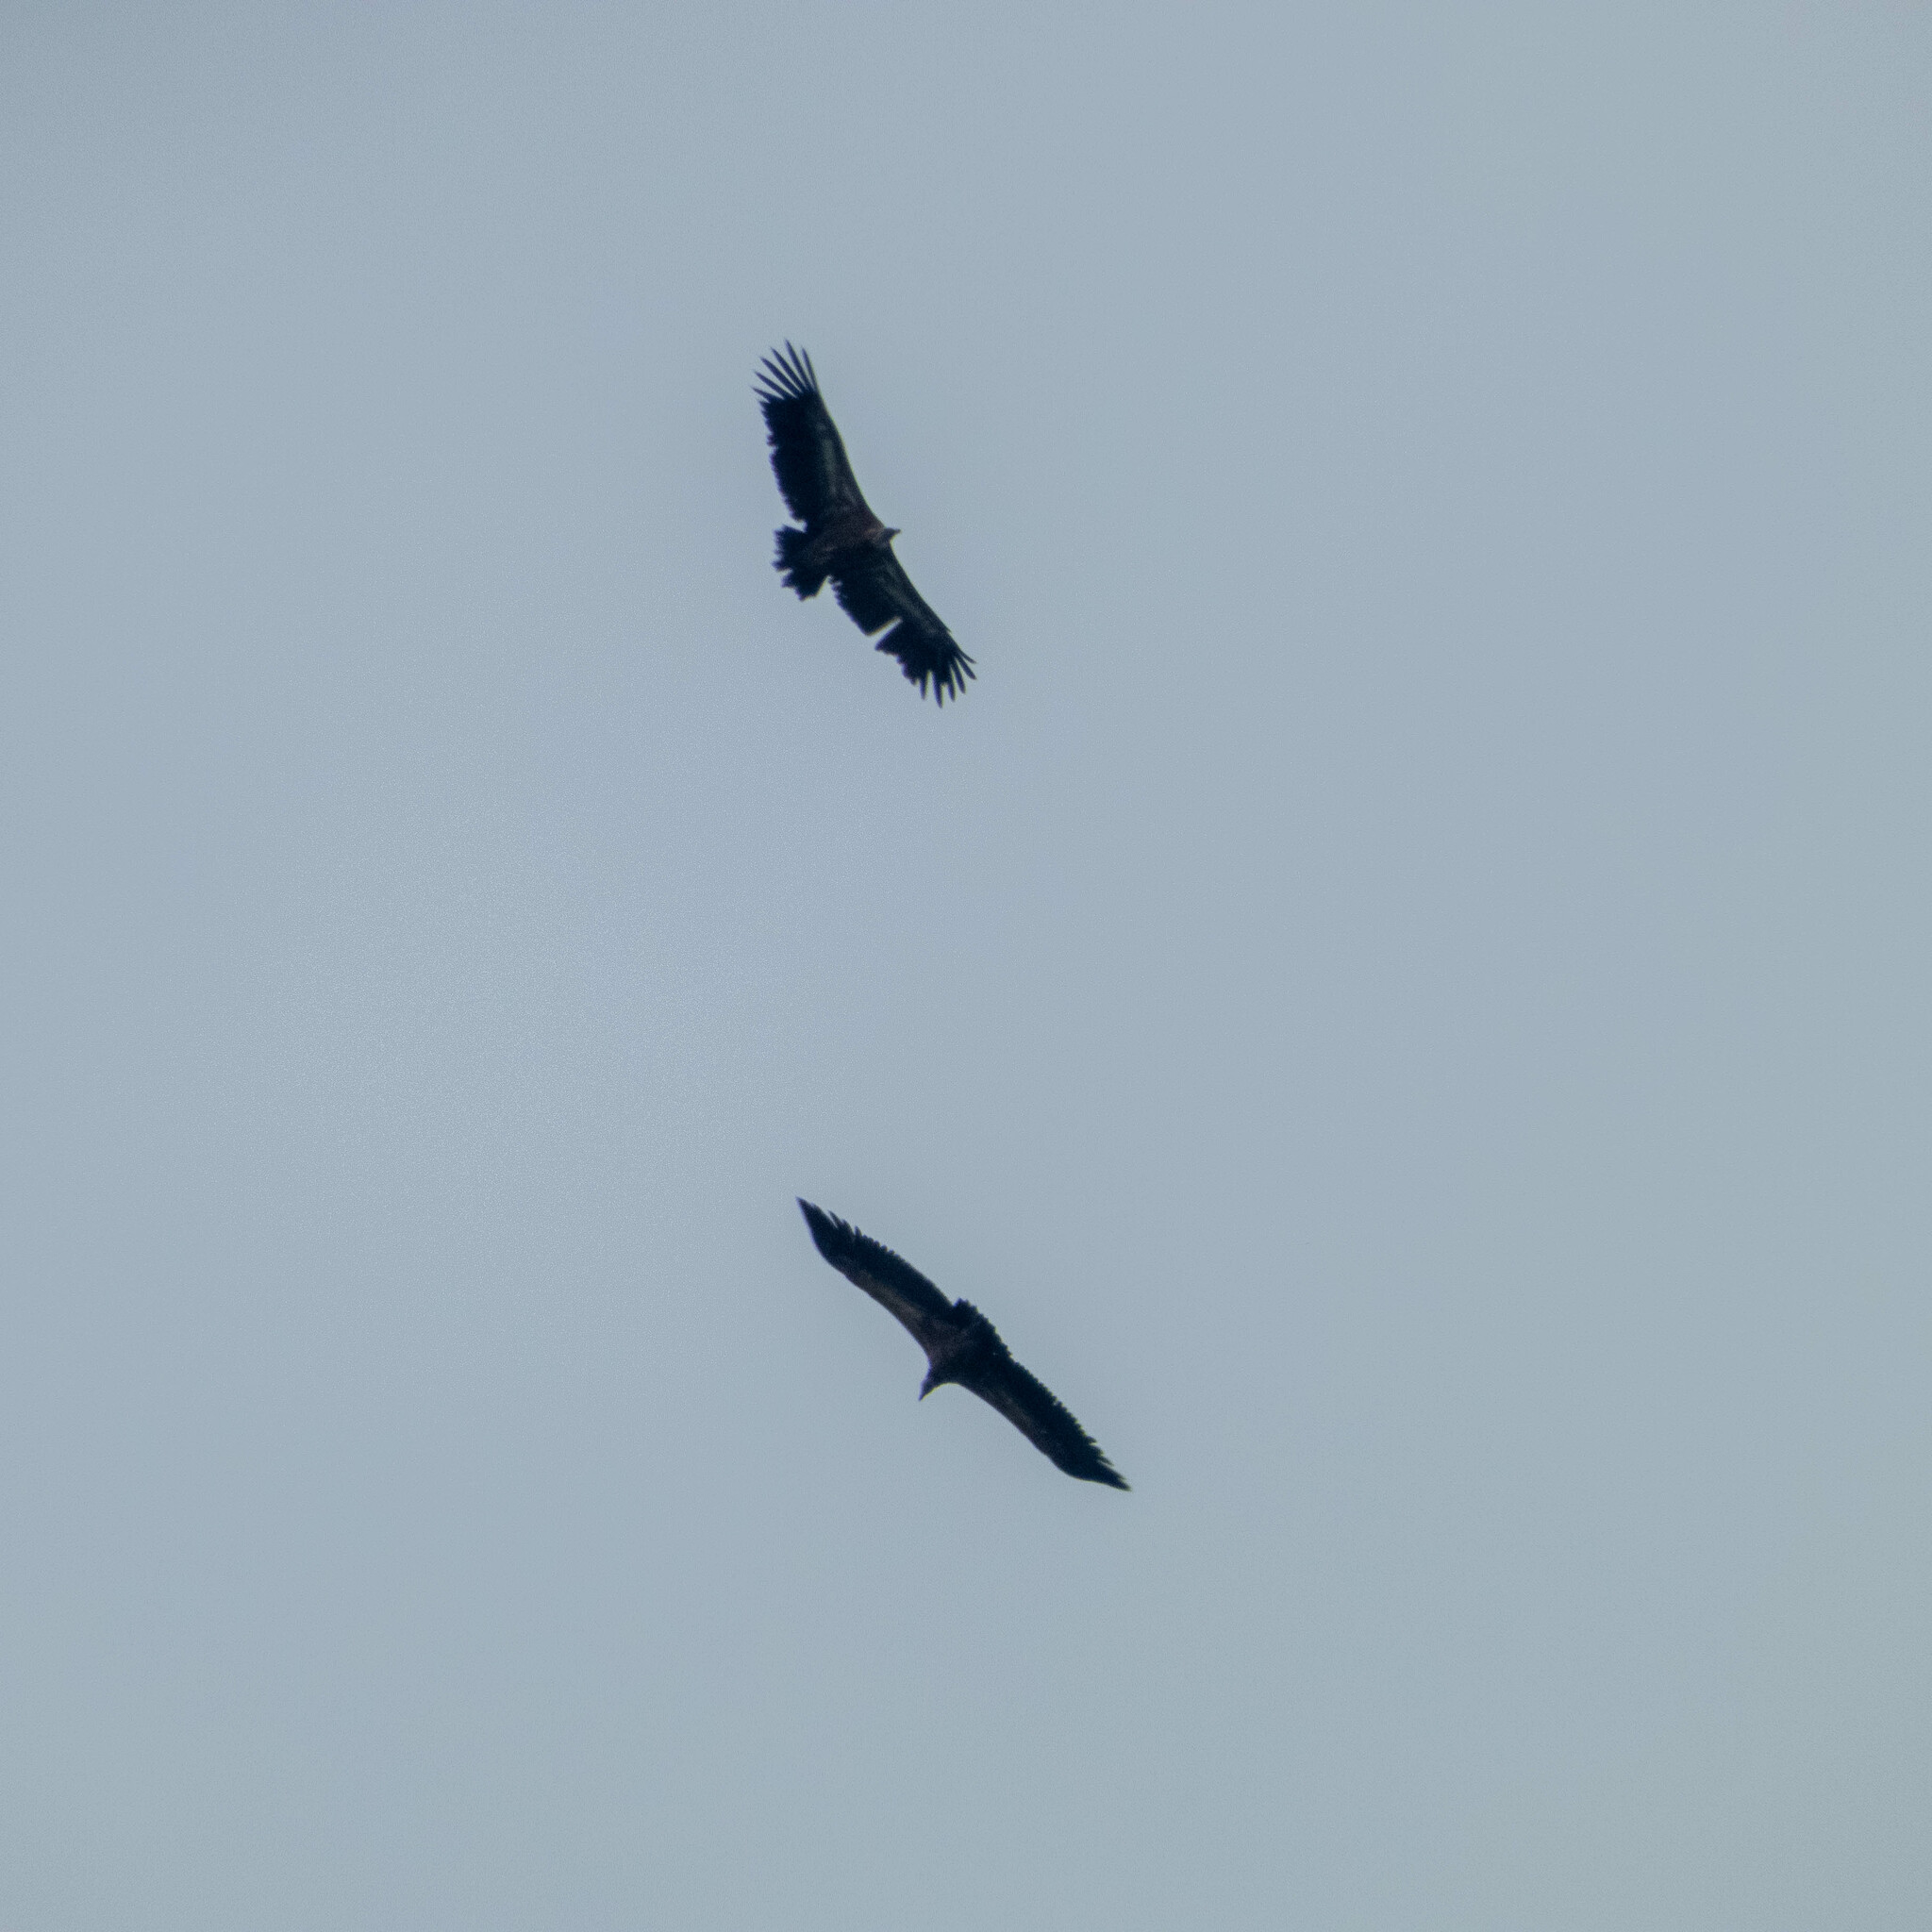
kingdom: Animalia
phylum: Chordata
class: Aves
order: Accipitriformes
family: Accipitridae
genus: Gyps
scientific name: Gyps fulvus
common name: Griffon vulture
